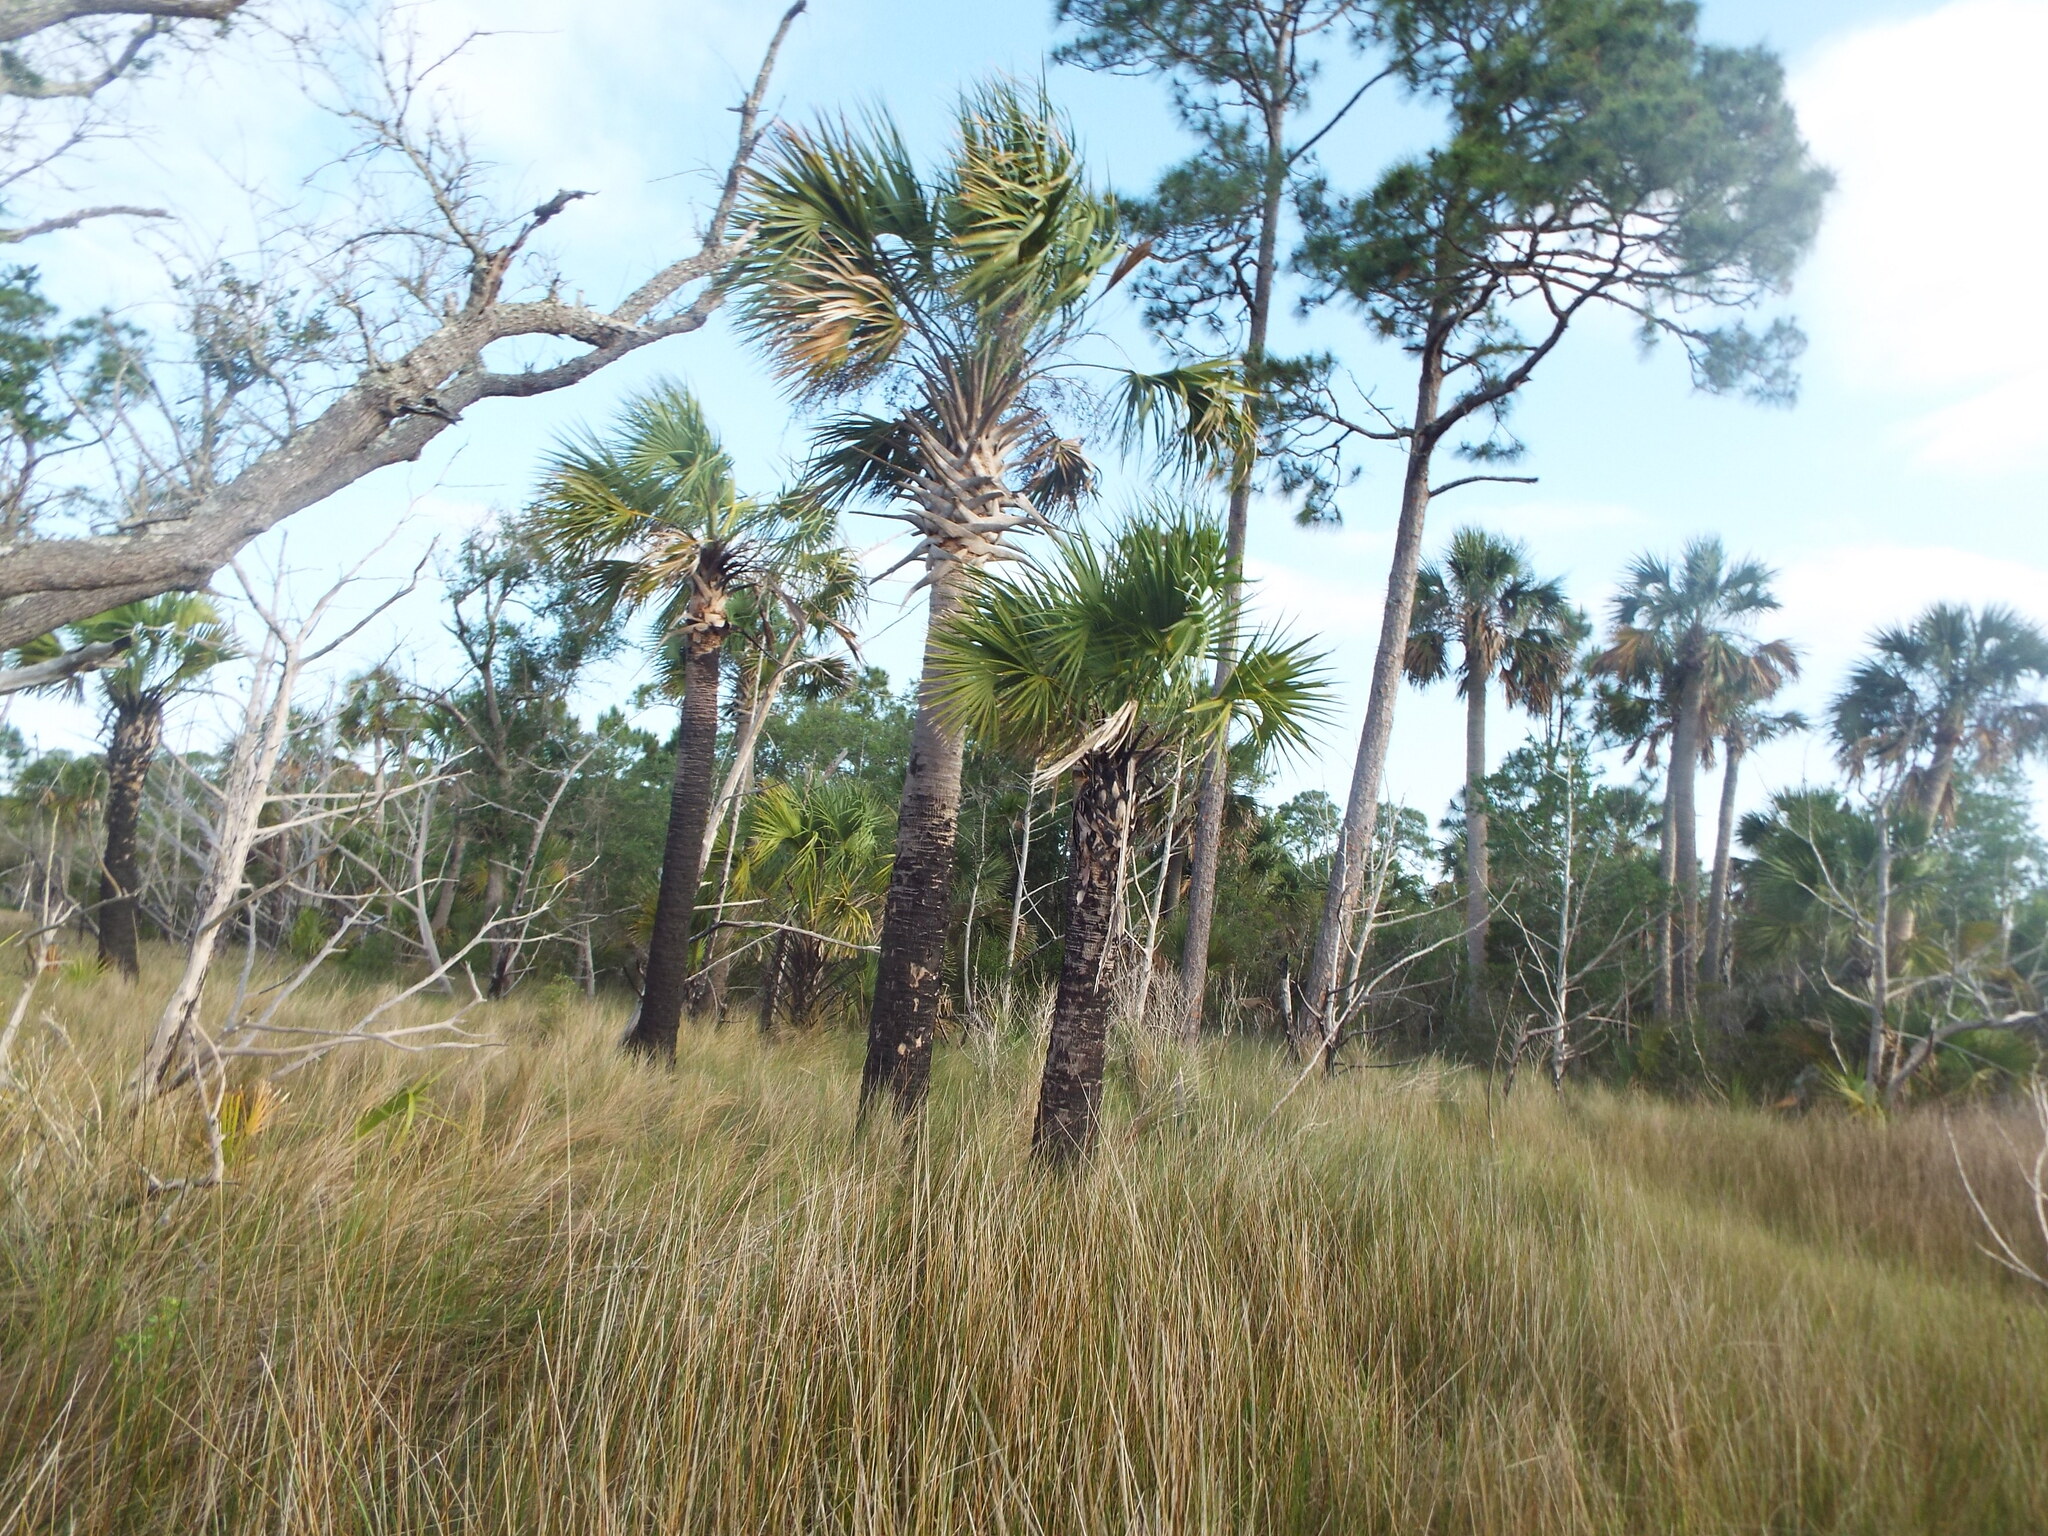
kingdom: Plantae
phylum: Tracheophyta
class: Liliopsida
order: Arecales
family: Arecaceae
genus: Sabal
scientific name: Sabal palmetto
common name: Blue palmetto
